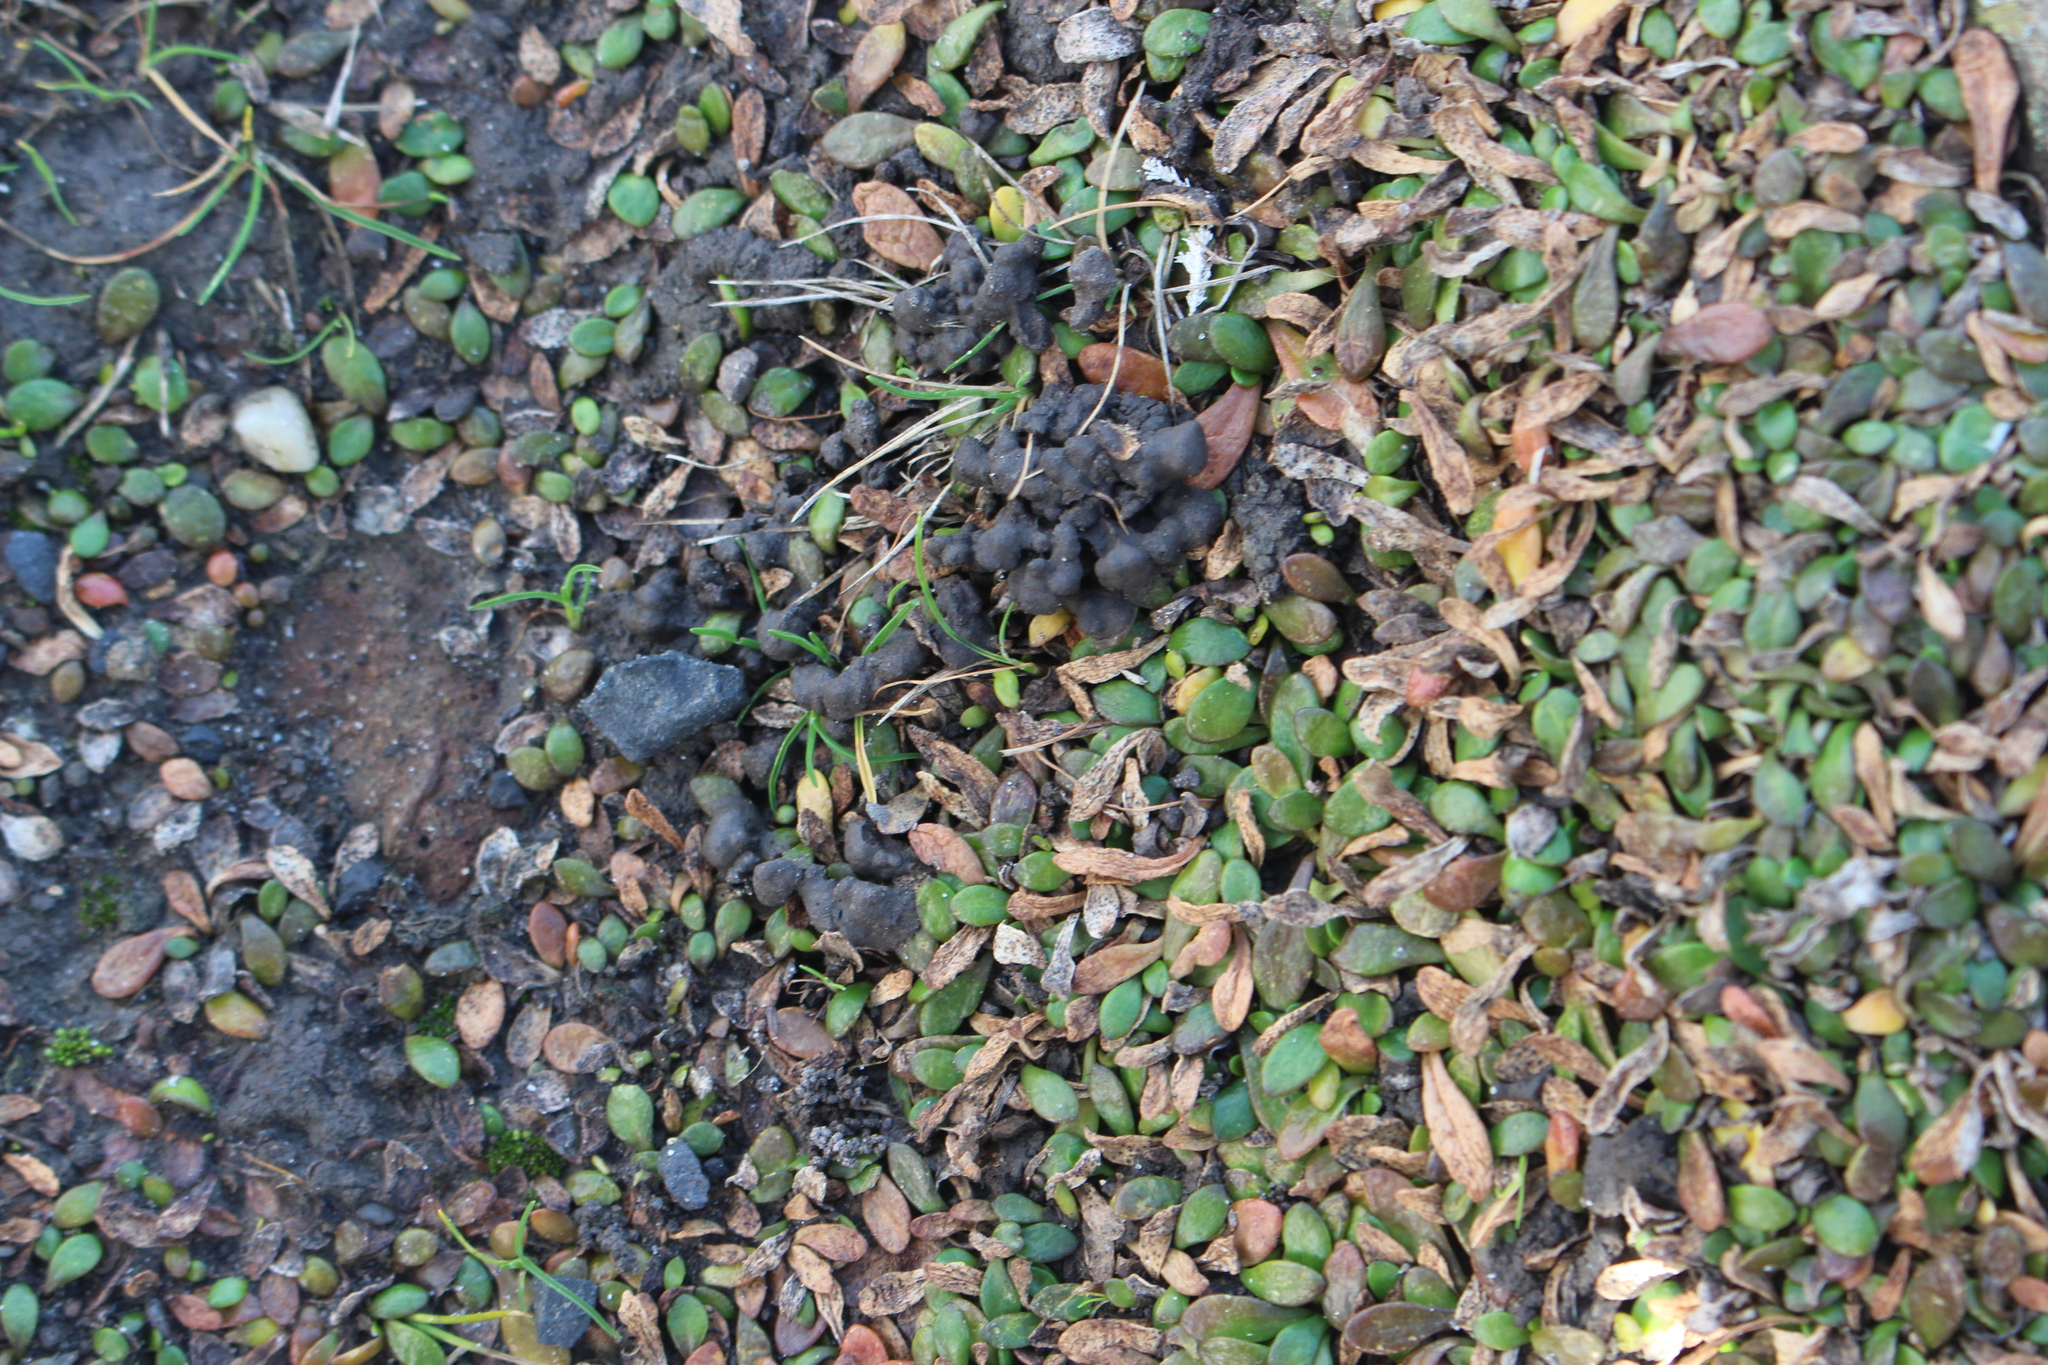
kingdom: Plantae
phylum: Tracheophyta
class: Magnoliopsida
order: Asterales
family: Goodeniaceae
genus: Goodenia
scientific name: Goodenia radicans
